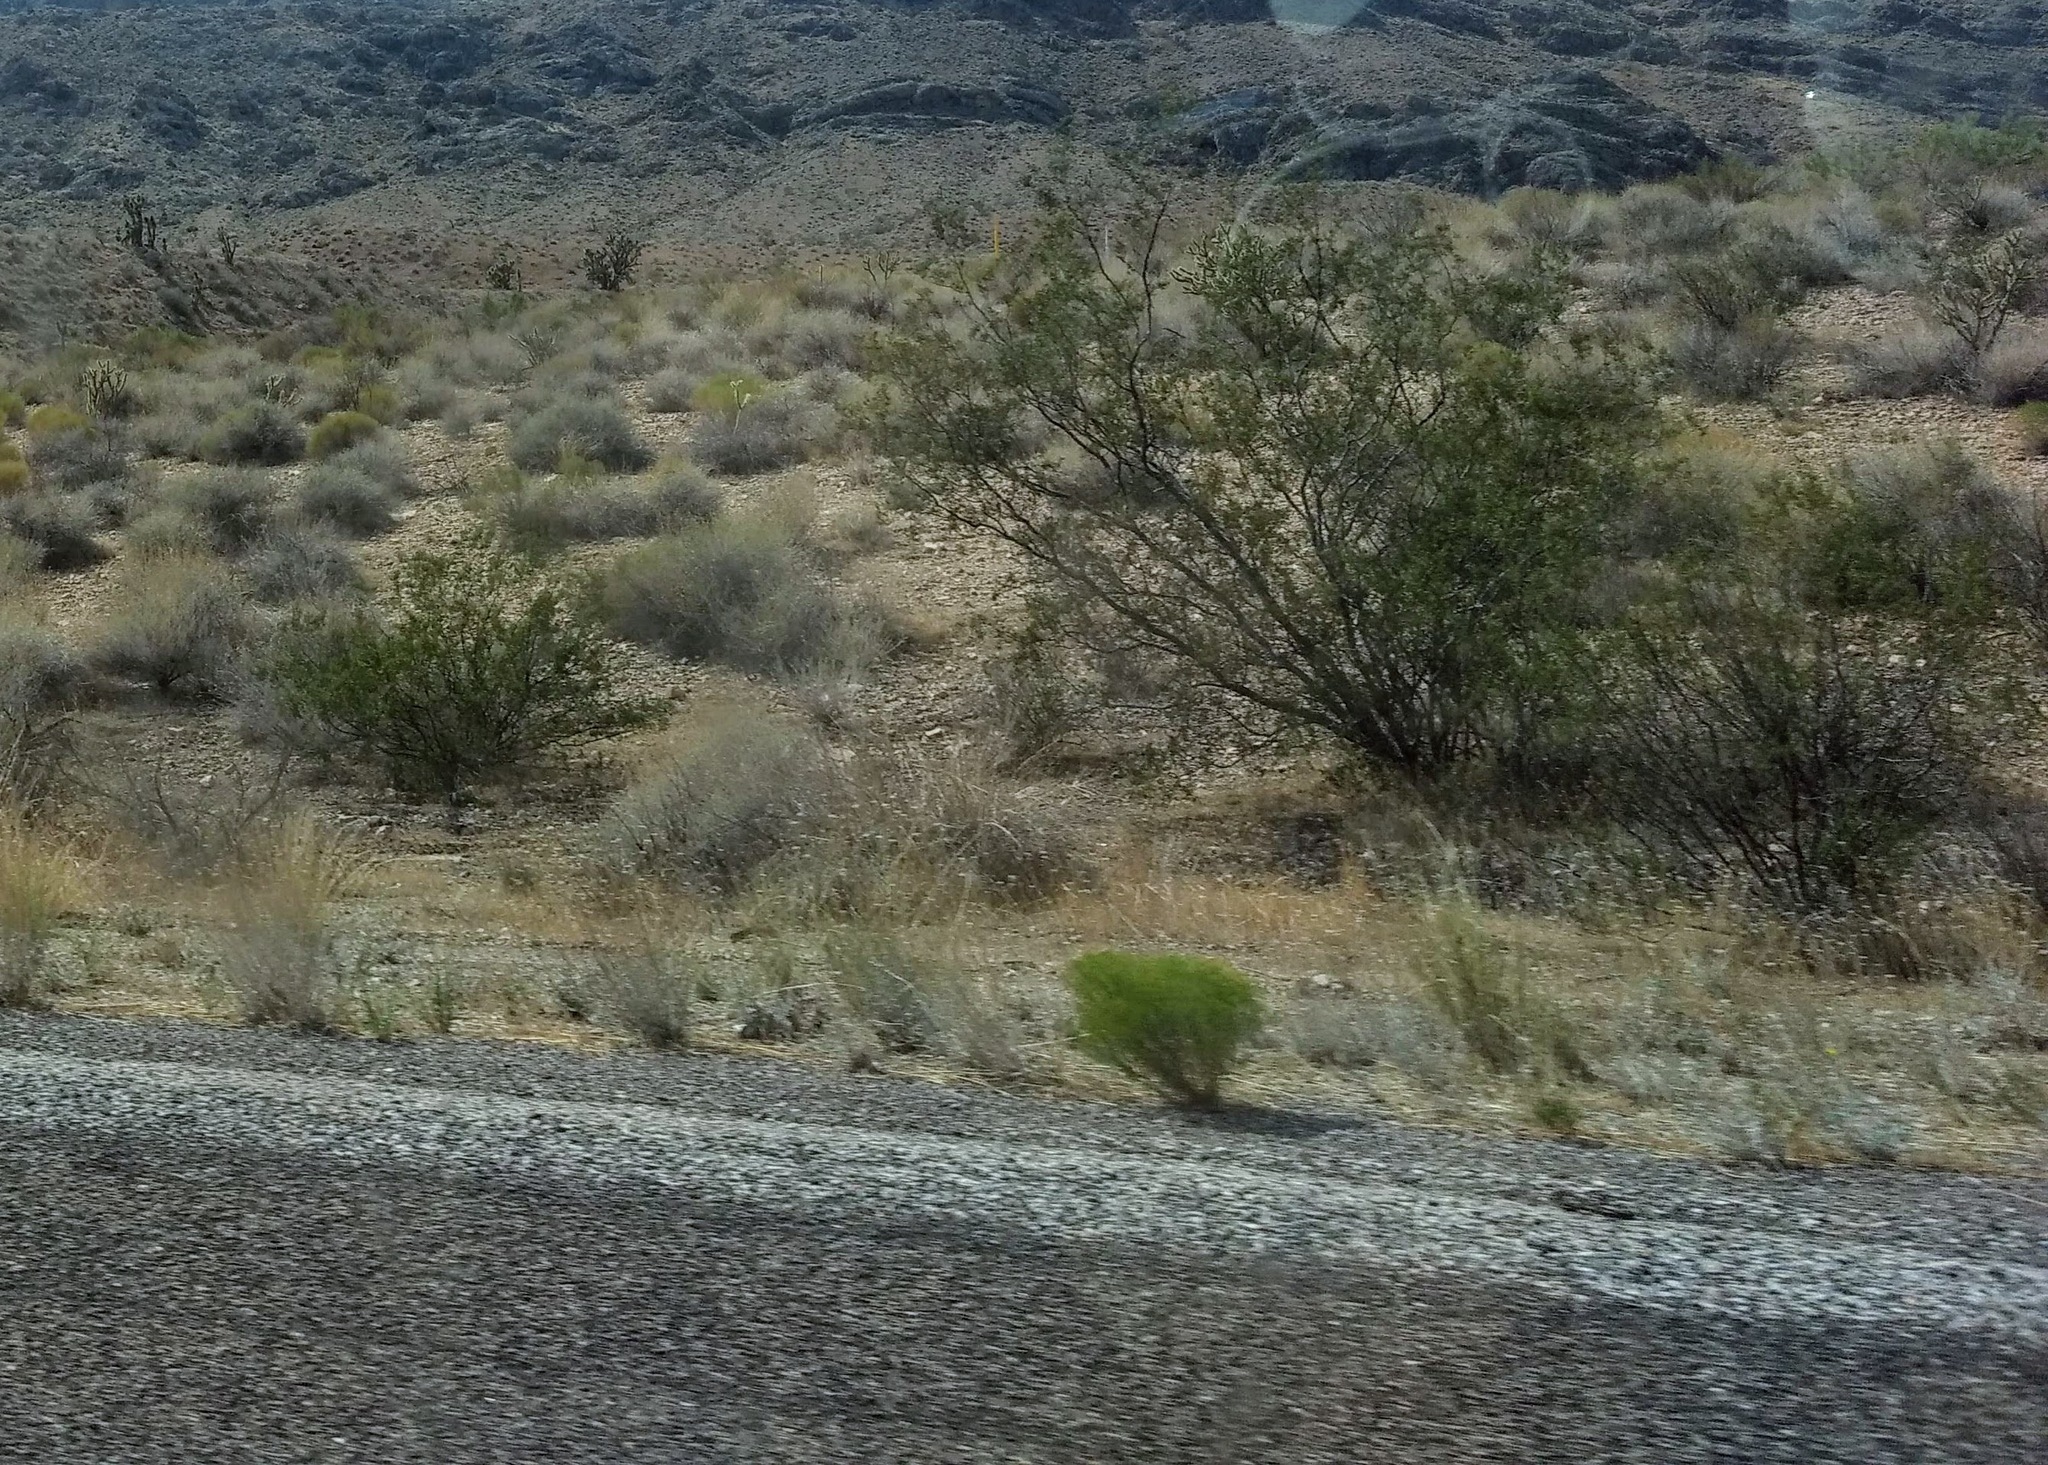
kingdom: Plantae
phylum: Tracheophyta
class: Magnoliopsida
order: Zygophyllales
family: Zygophyllaceae
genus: Larrea
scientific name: Larrea tridentata
